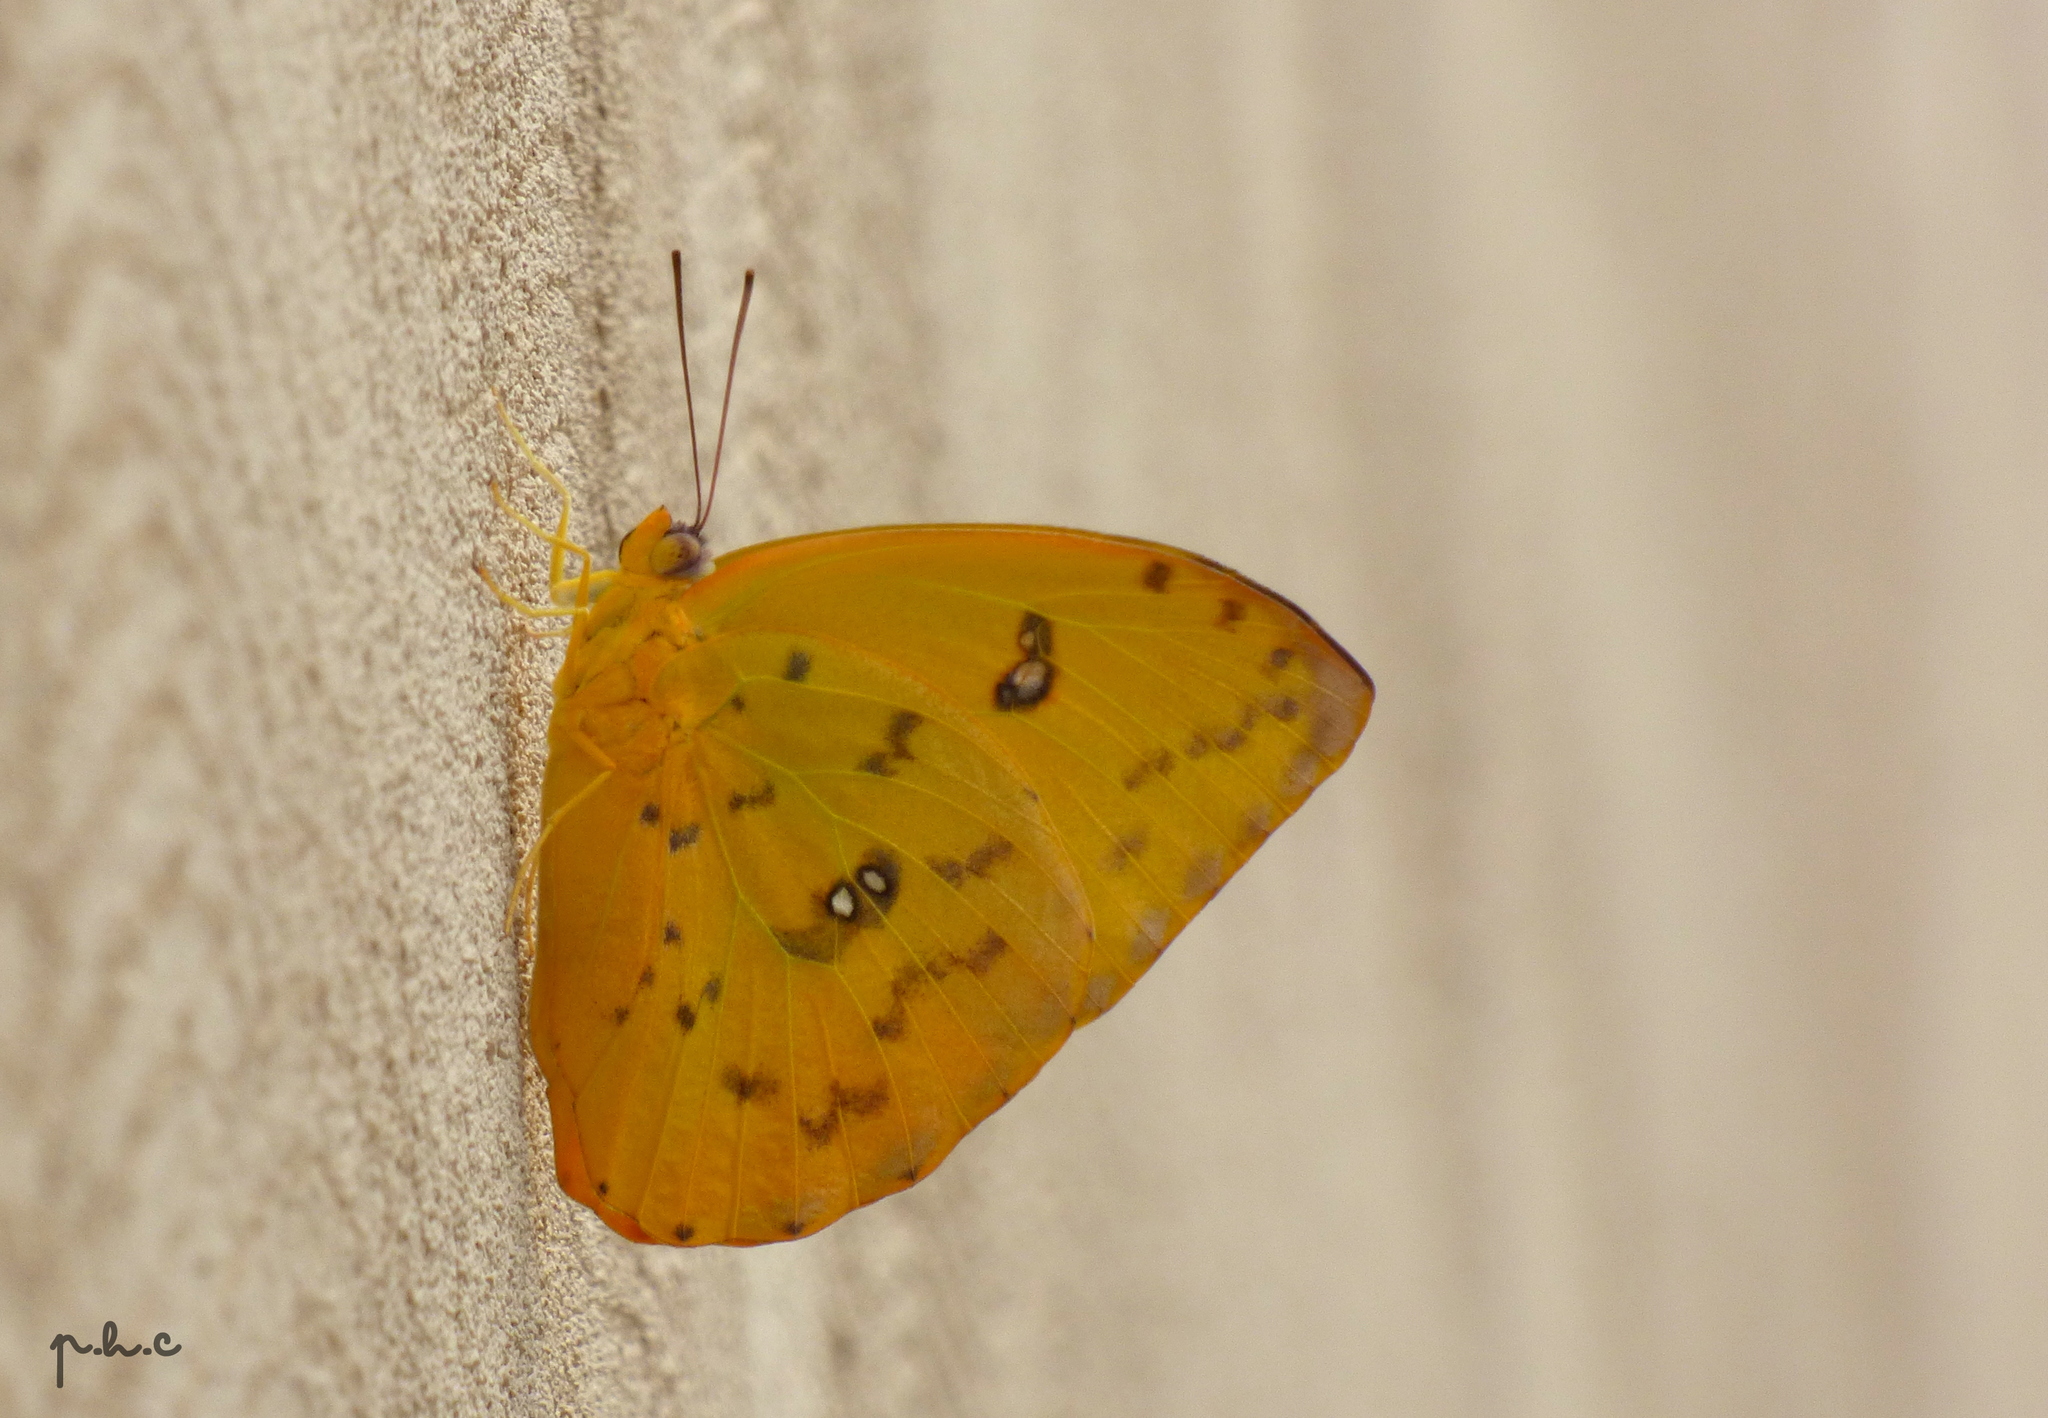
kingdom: Animalia
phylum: Arthropoda
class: Insecta
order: Lepidoptera
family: Pieridae
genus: Phoebis
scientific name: Phoebis marcellina
